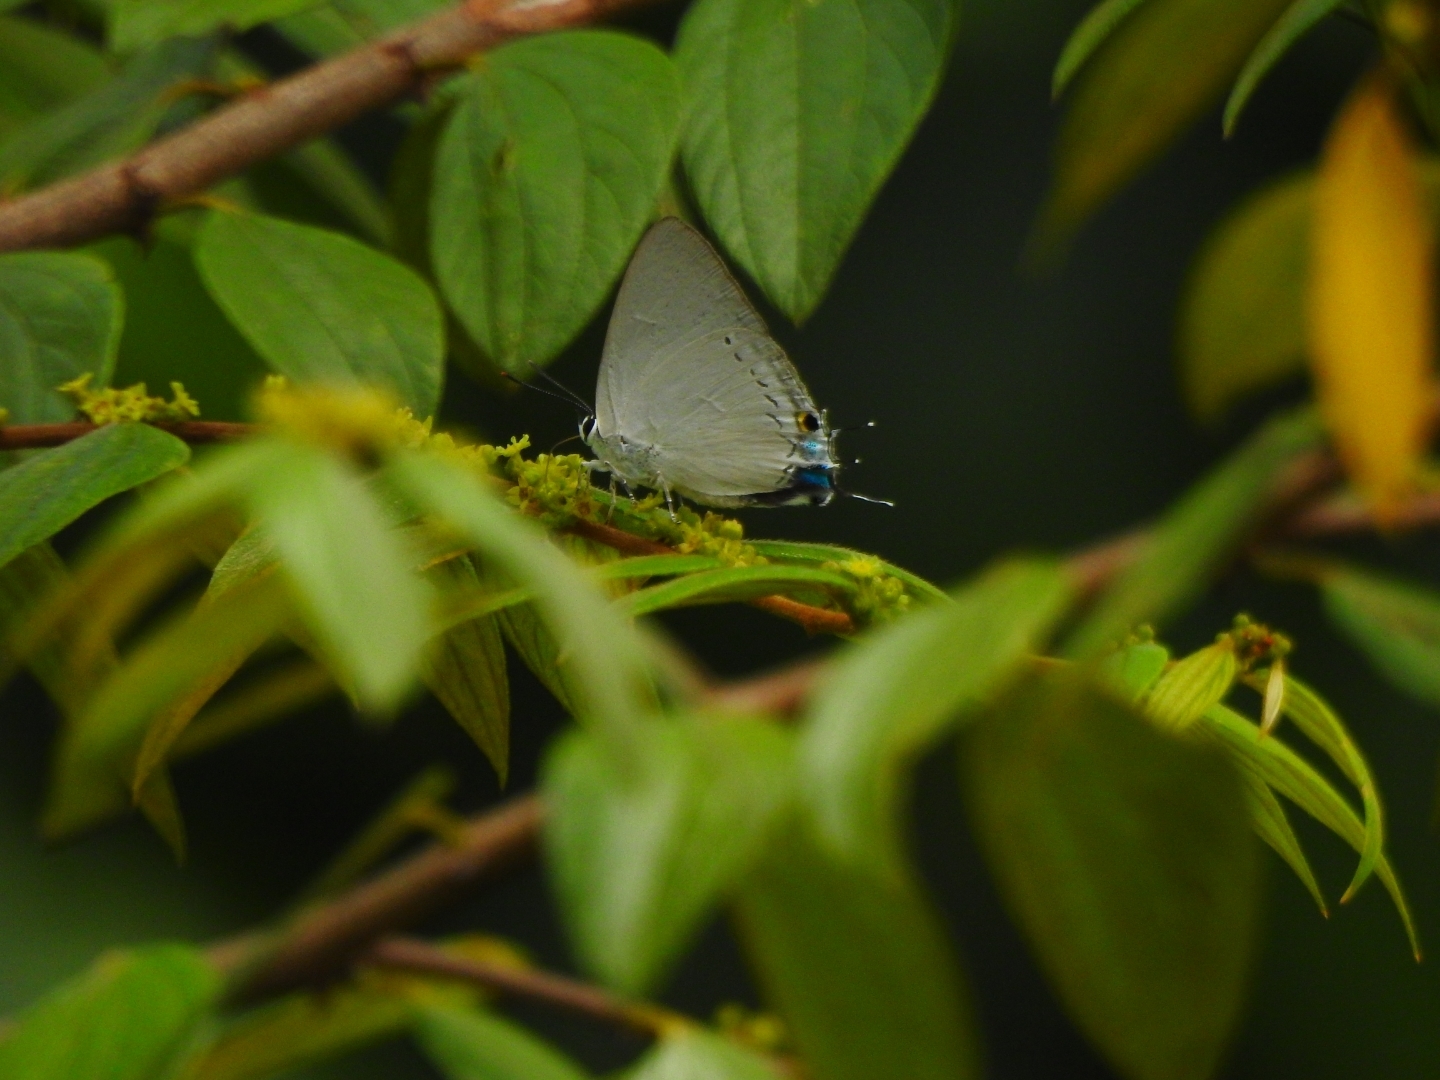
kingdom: Animalia
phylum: Arthropoda
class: Insecta
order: Lepidoptera
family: Lycaenidae
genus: Tajuria
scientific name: Tajuria cippus
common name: Peacock royal
